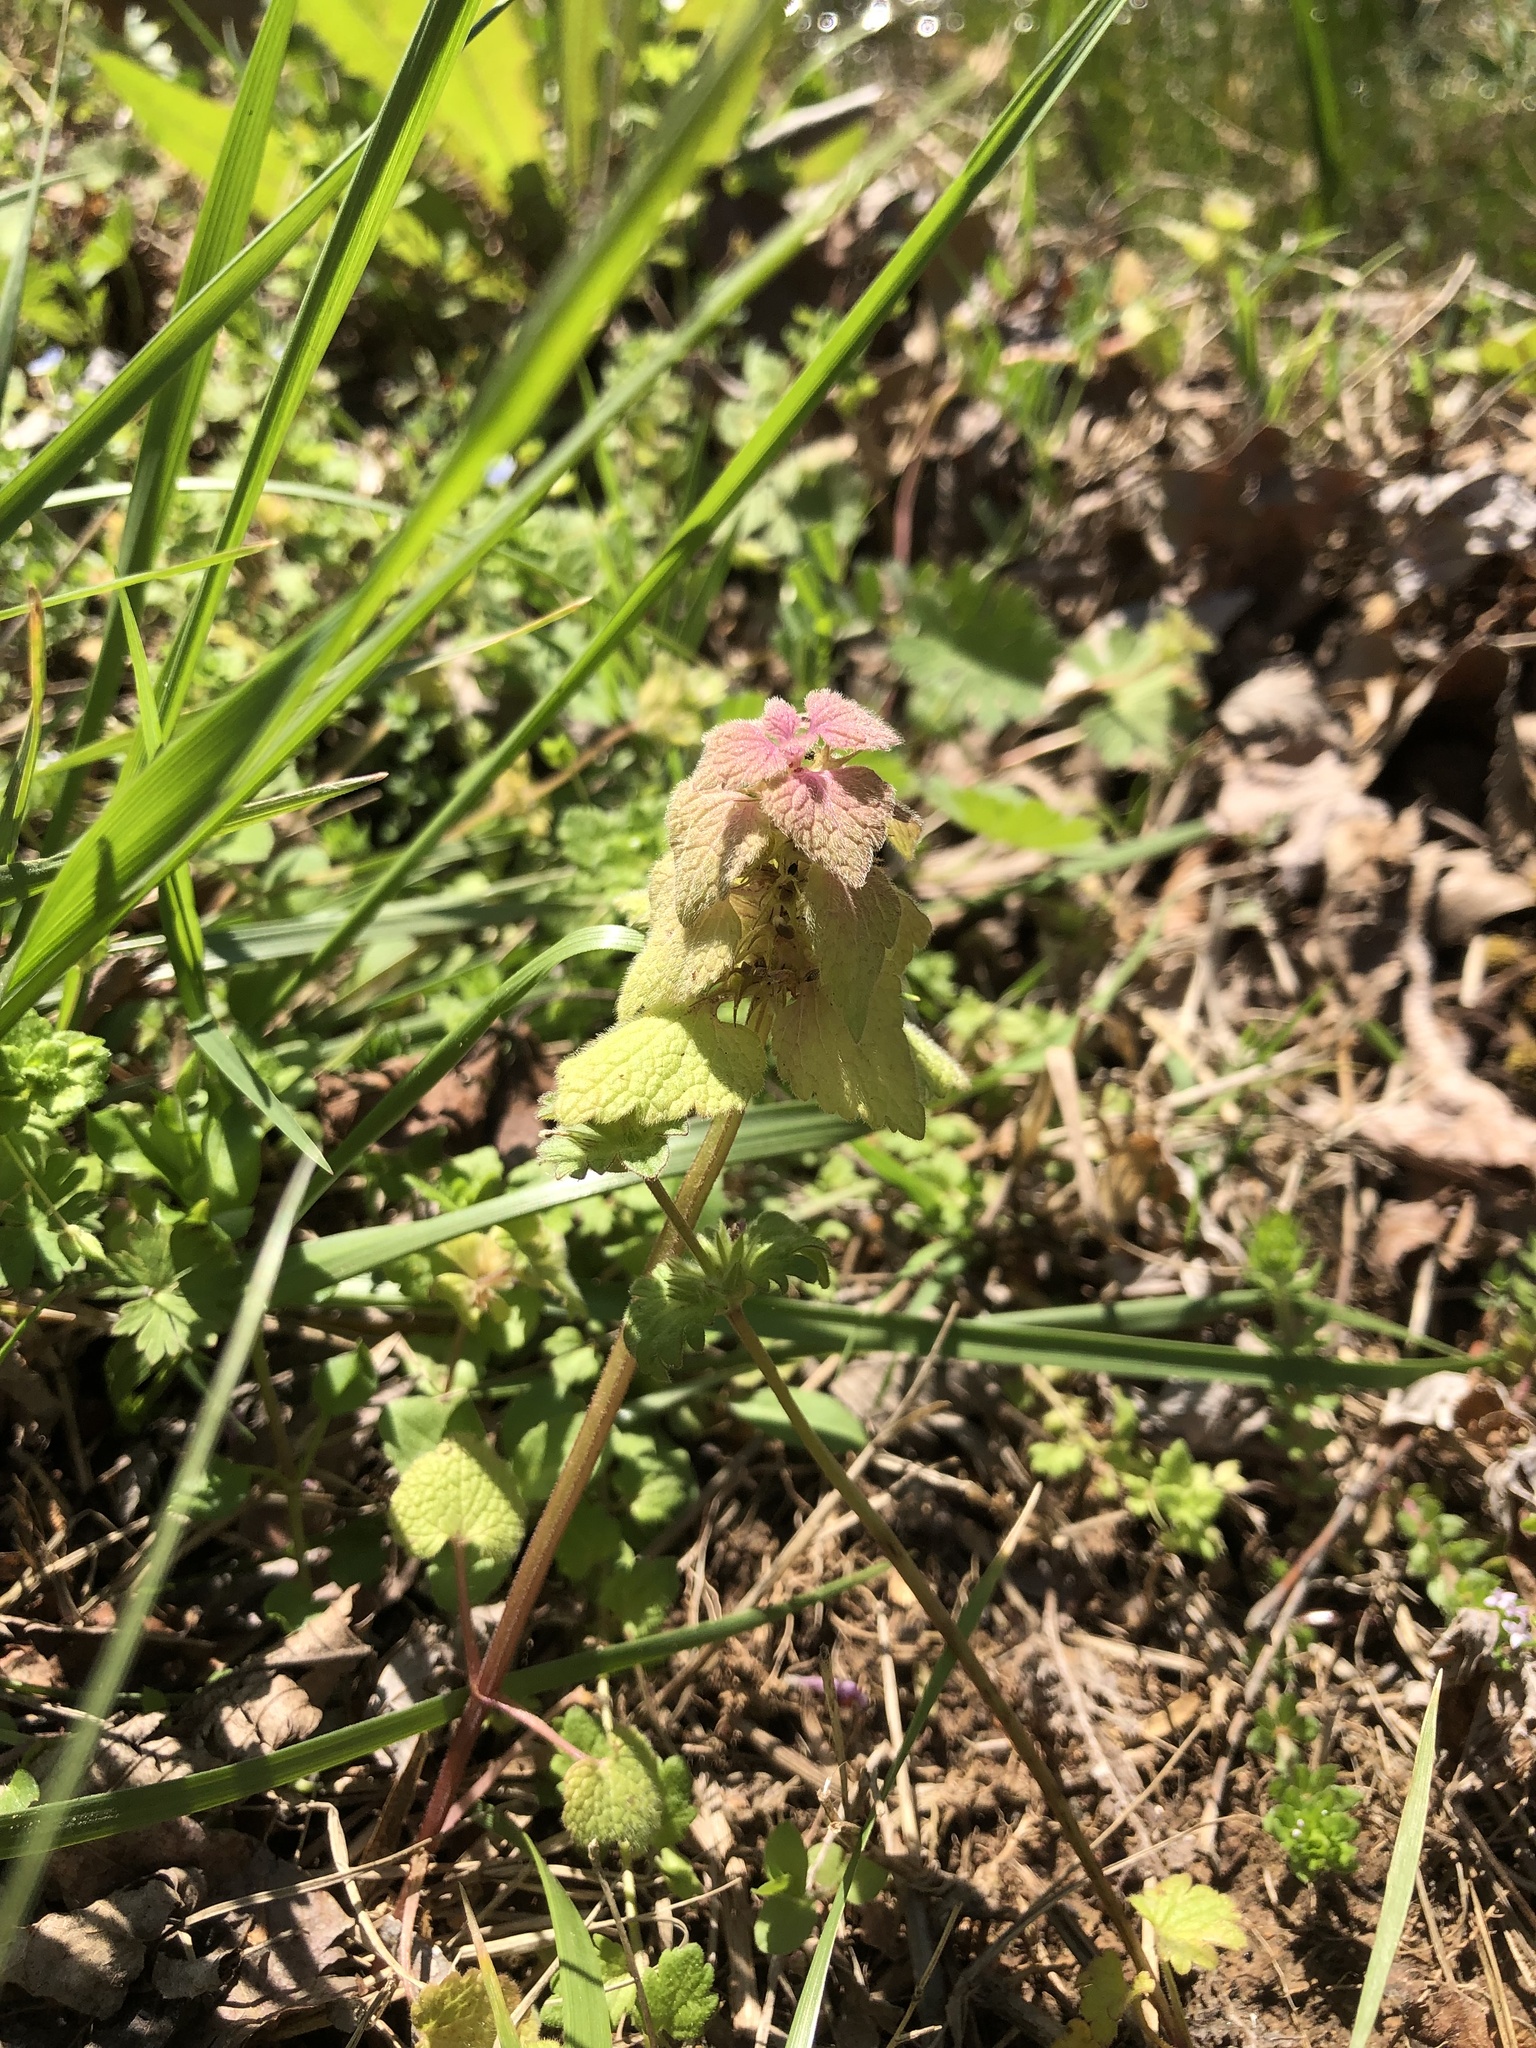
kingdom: Plantae
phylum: Tracheophyta
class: Magnoliopsida
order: Lamiales
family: Lamiaceae
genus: Lamium
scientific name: Lamium purpureum
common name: Red dead-nettle
